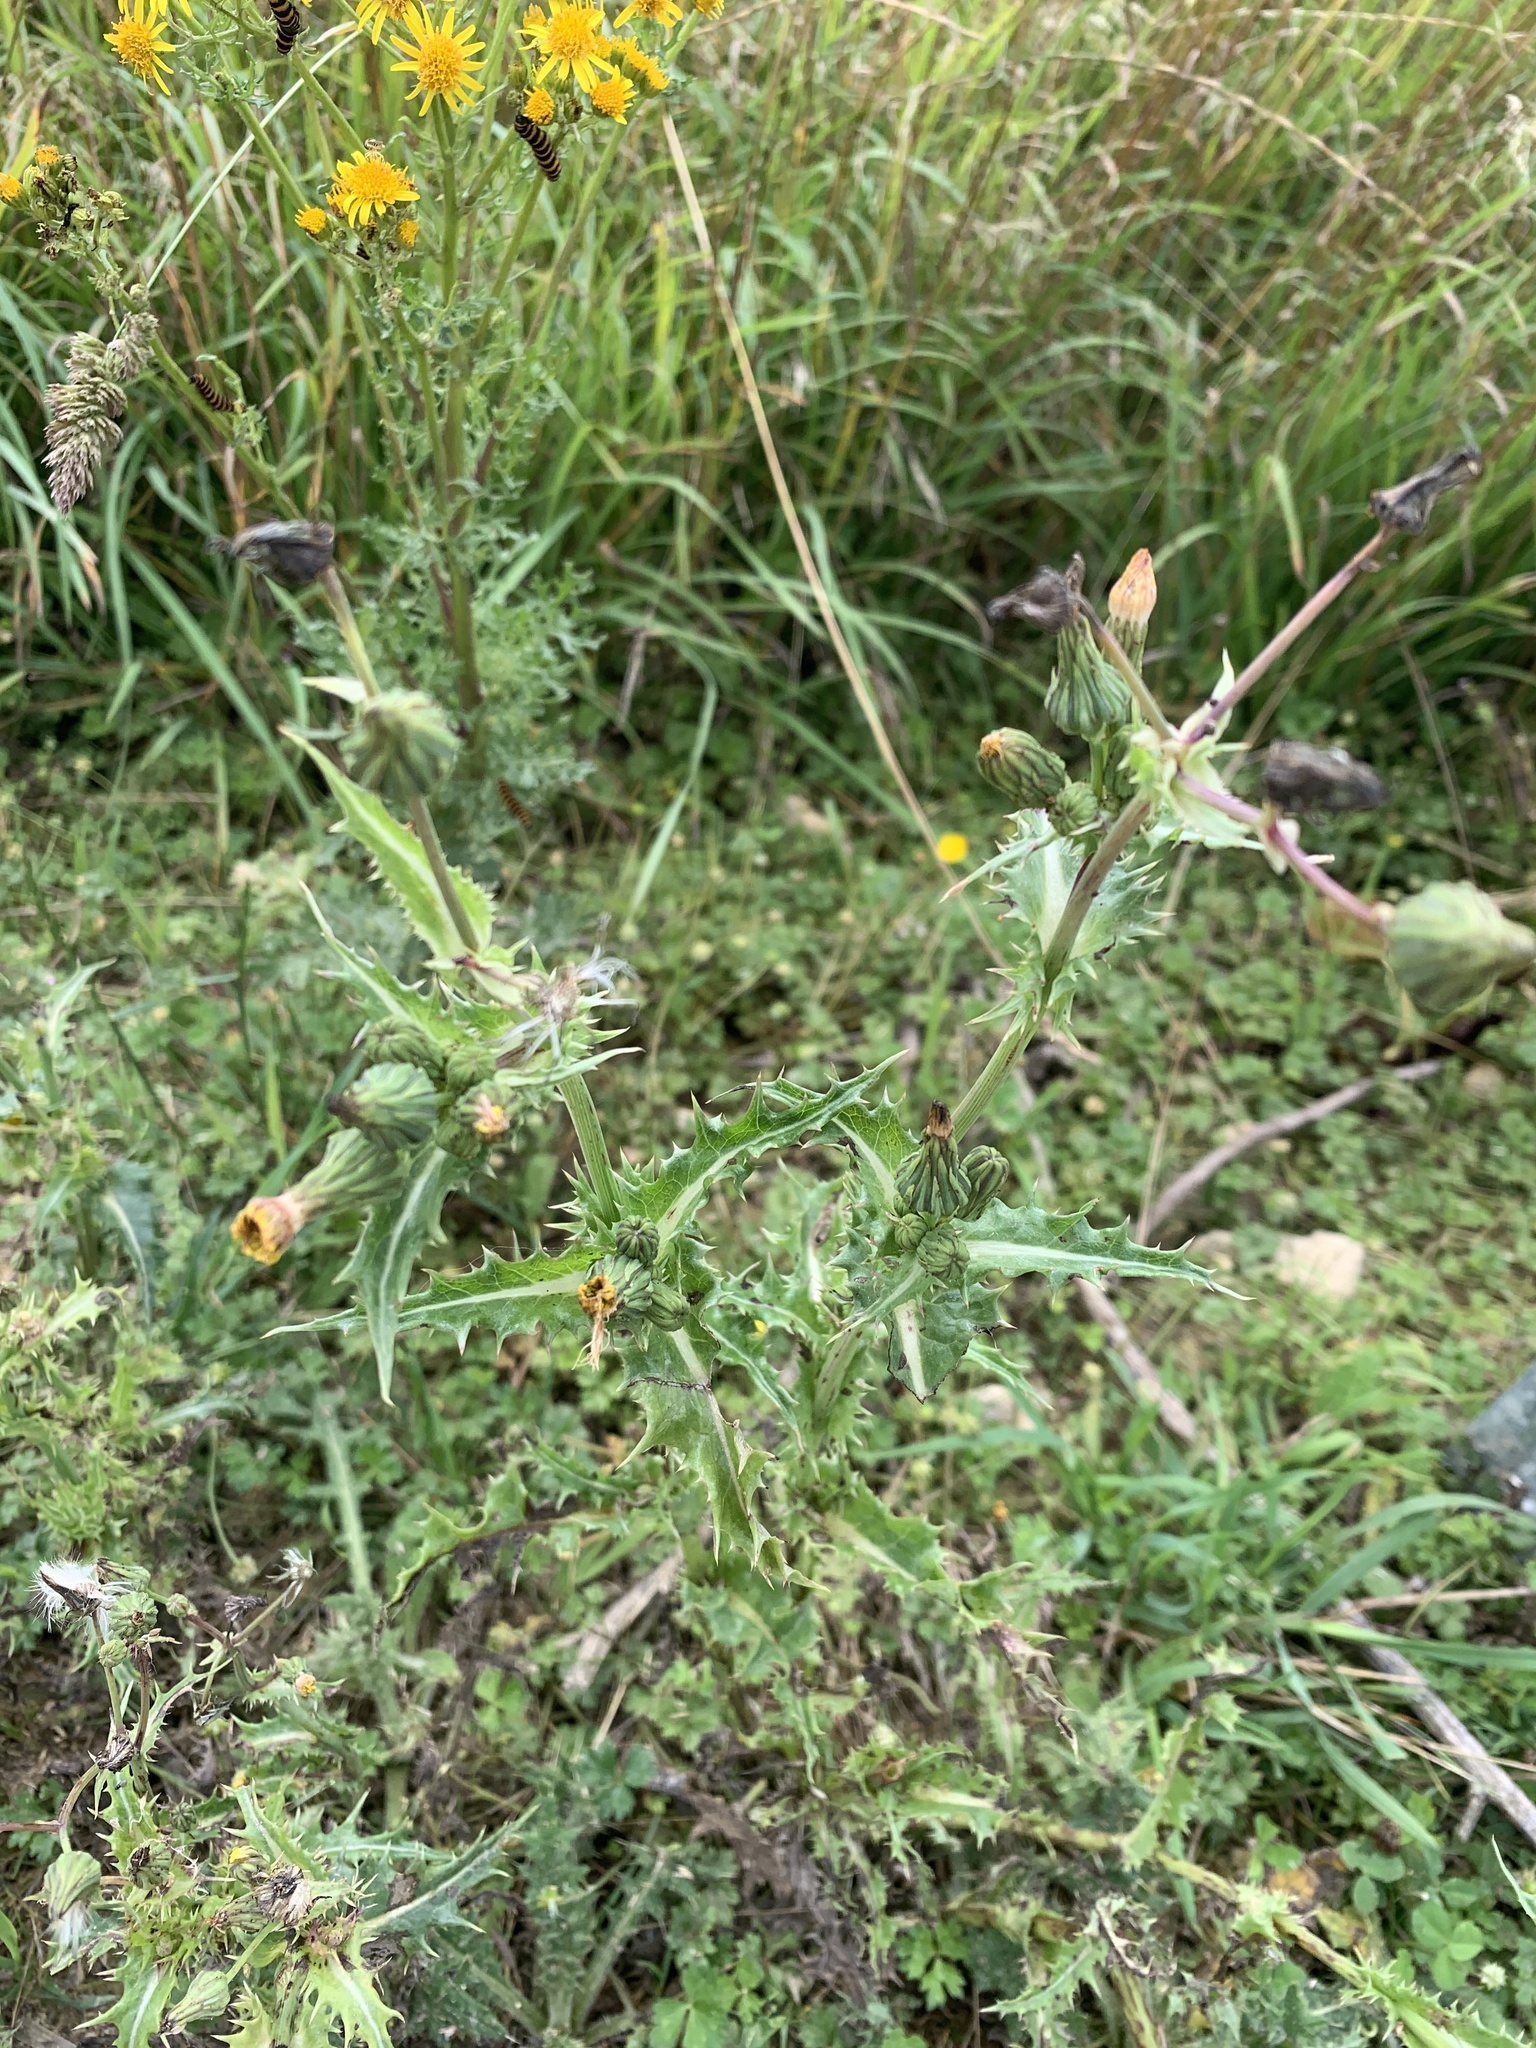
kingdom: Plantae
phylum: Tracheophyta
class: Magnoliopsida
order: Asterales
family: Asteraceae
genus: Sonchus
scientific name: Sonchus asper
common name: Prickly sow-thistle
